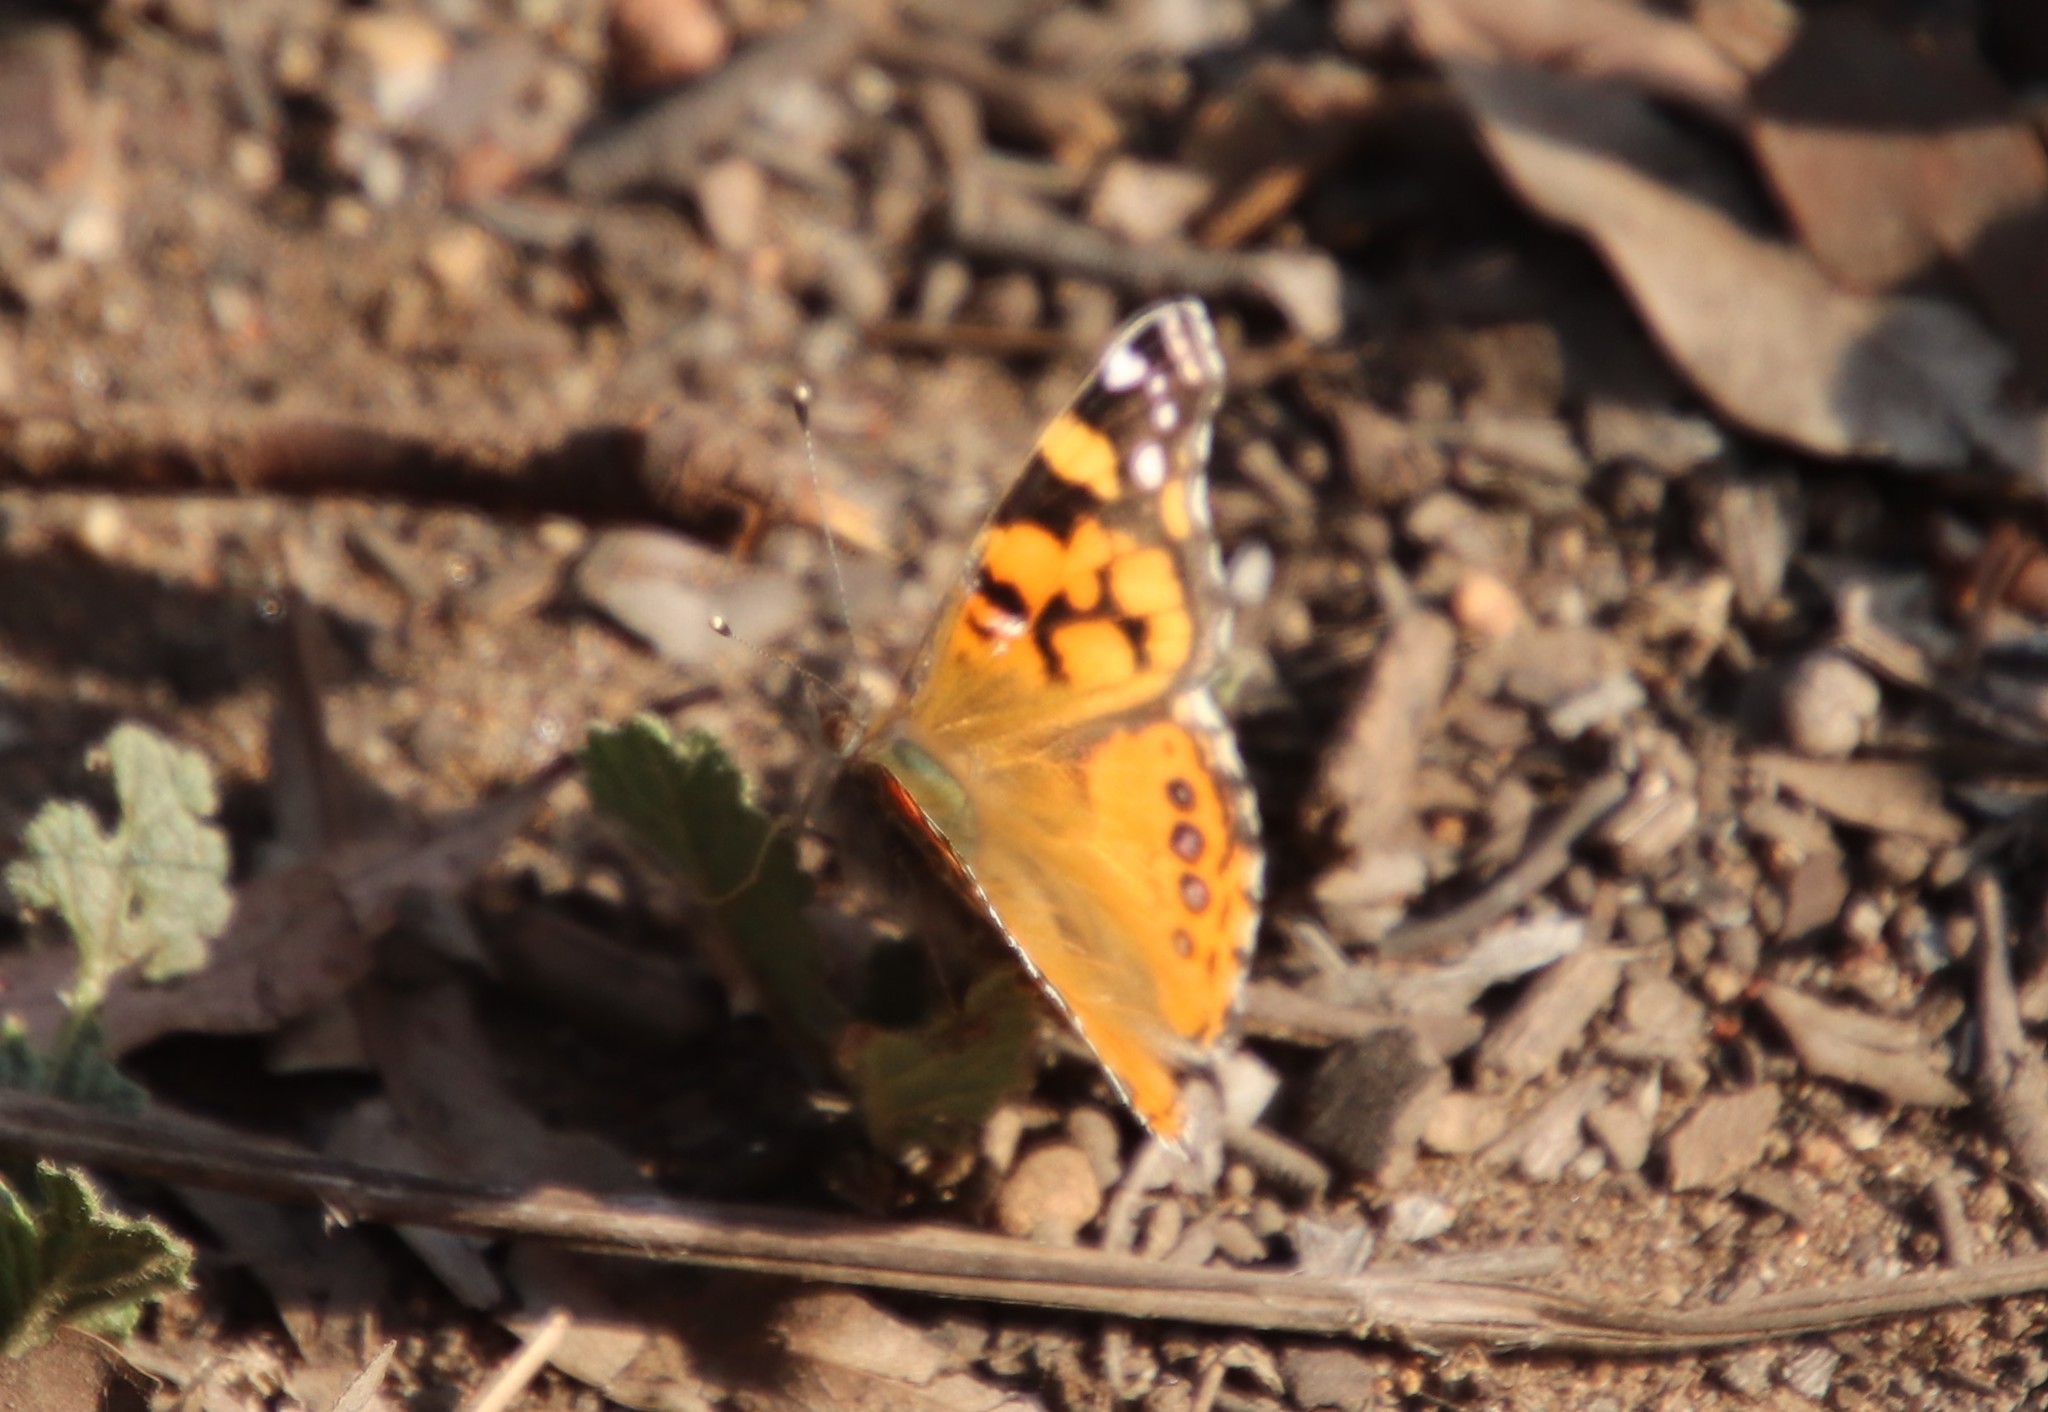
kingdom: Animalia
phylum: Arthropoda
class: Insecta
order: Lepidoptera
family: Nymphalidae
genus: Vanessa
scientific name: Vanessa annabella
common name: West coast lady
